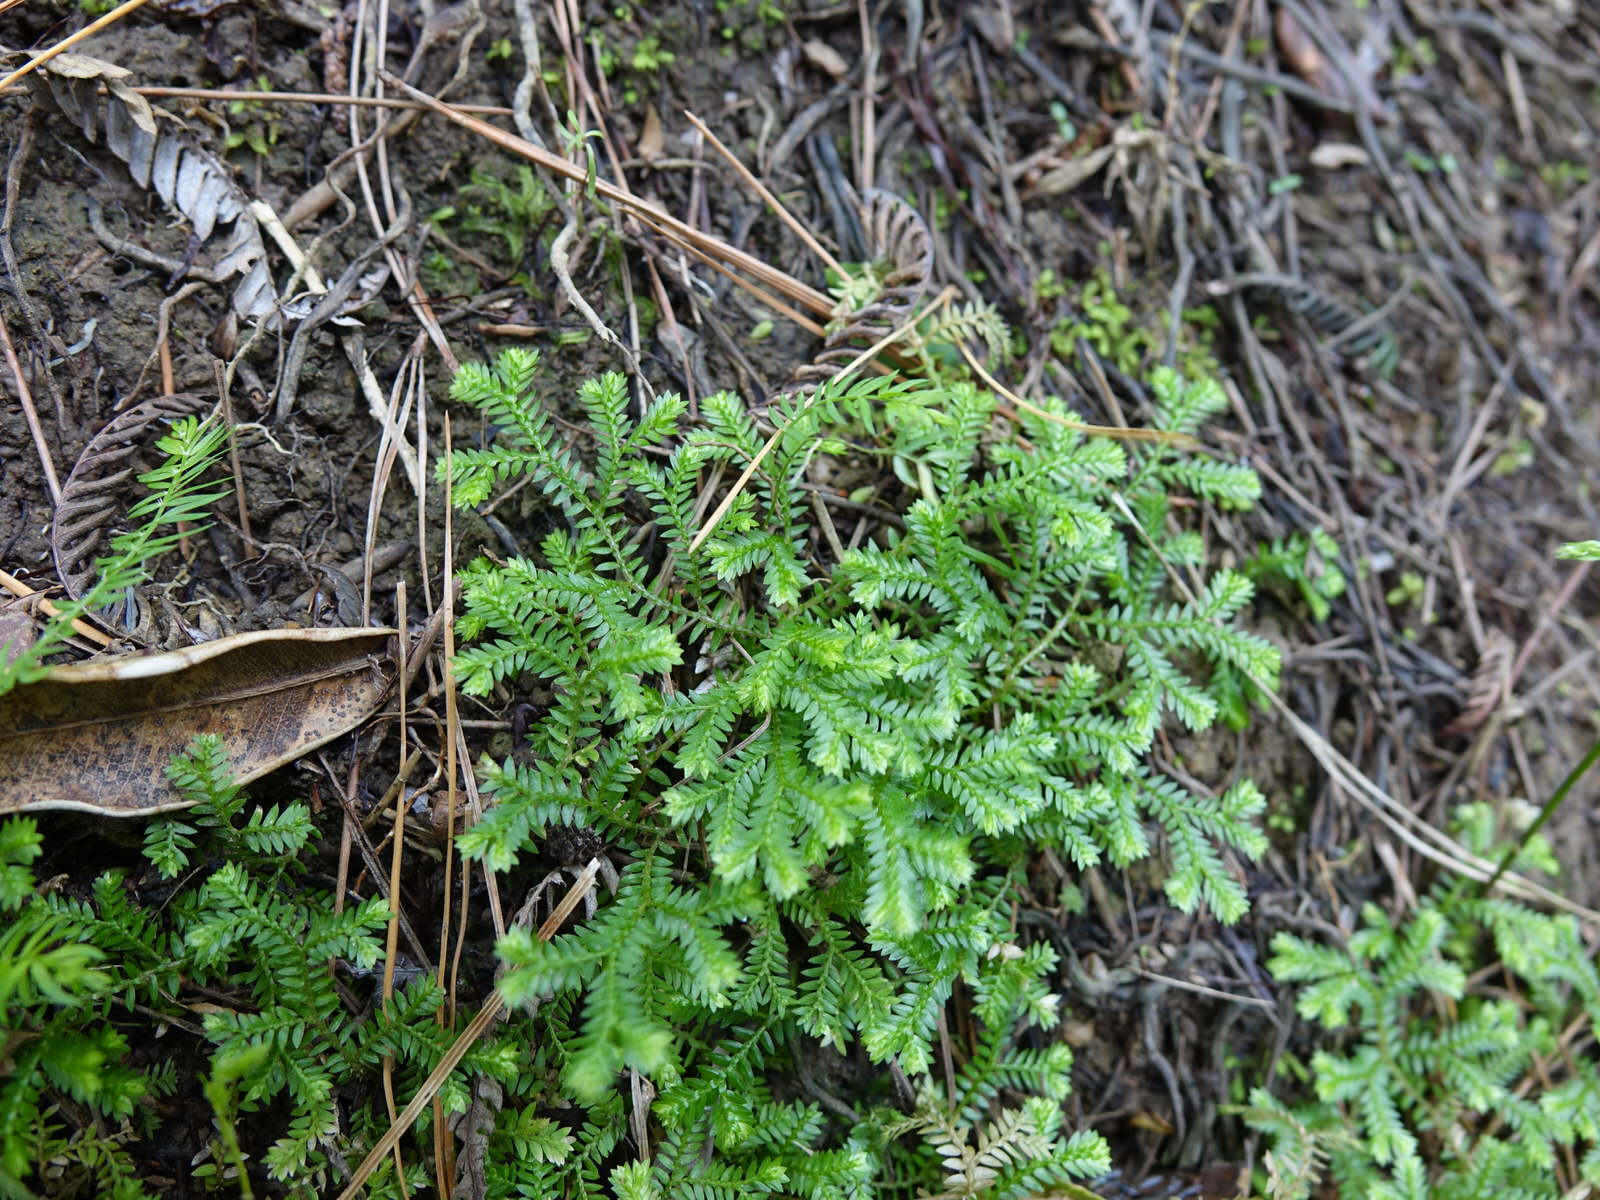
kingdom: Plantae
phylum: Tracheophyta
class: Lycopodiopsida
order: Selaginellales
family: Selaginellaceae
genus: Selaginella
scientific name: Selaginella kraussiana
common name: Krauss' spikemoss
